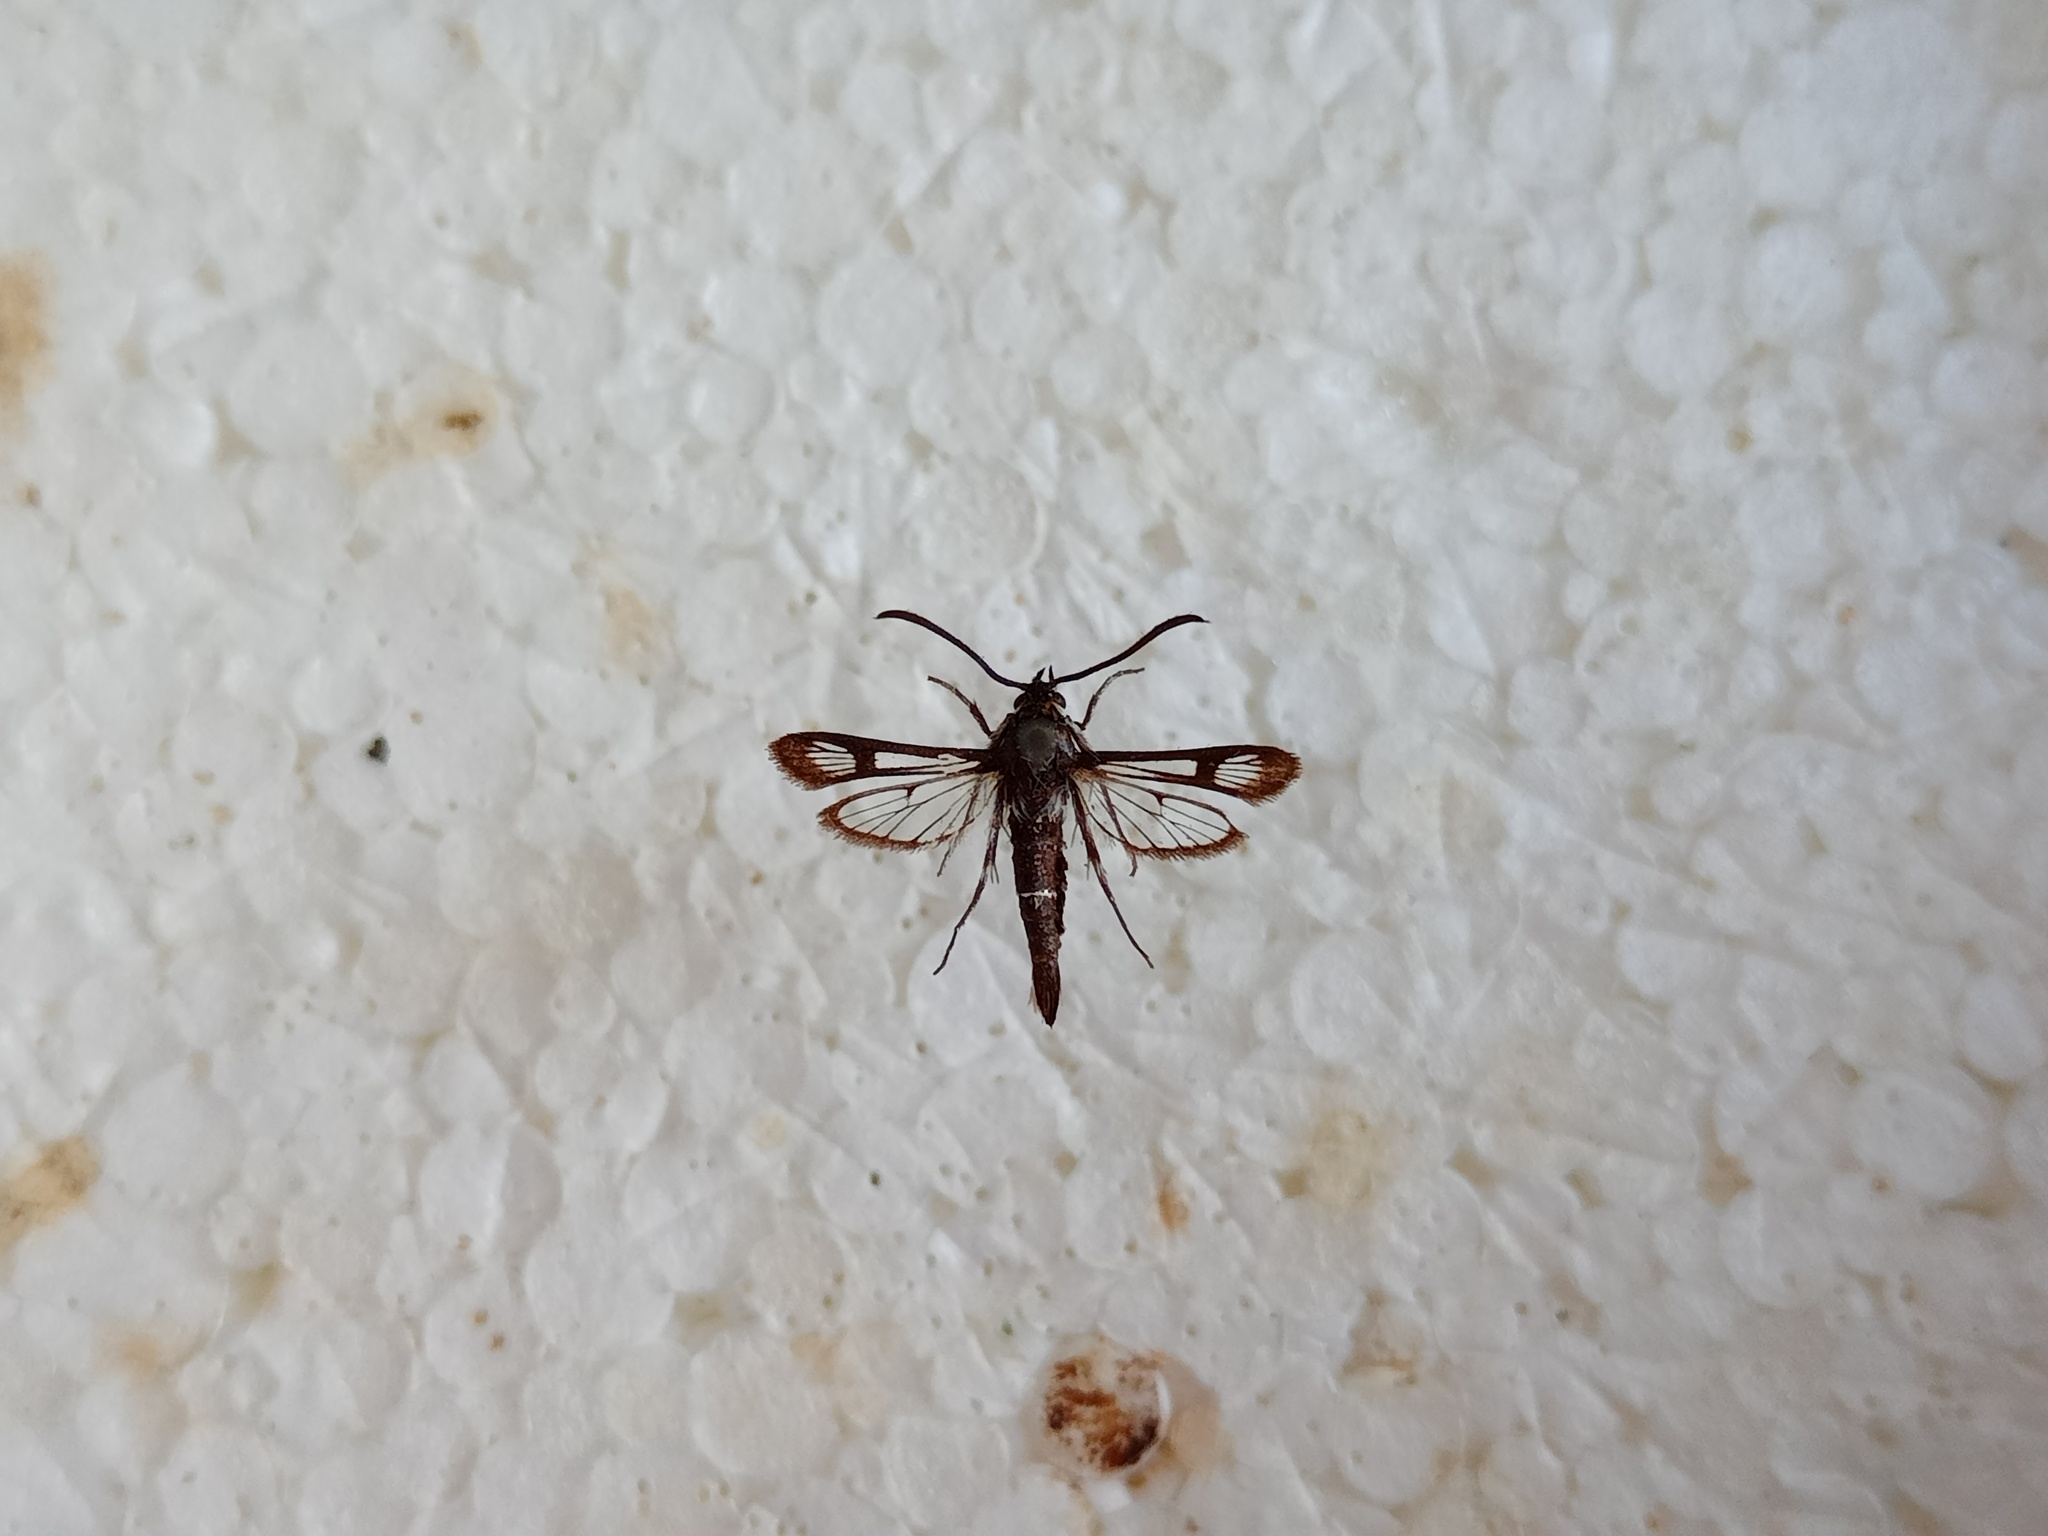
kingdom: Animalia
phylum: Arthropoda
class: Insecta
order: Lepidoptera
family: Sesiidae
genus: Pyropteron
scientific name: Pyropteron leucomelaena
